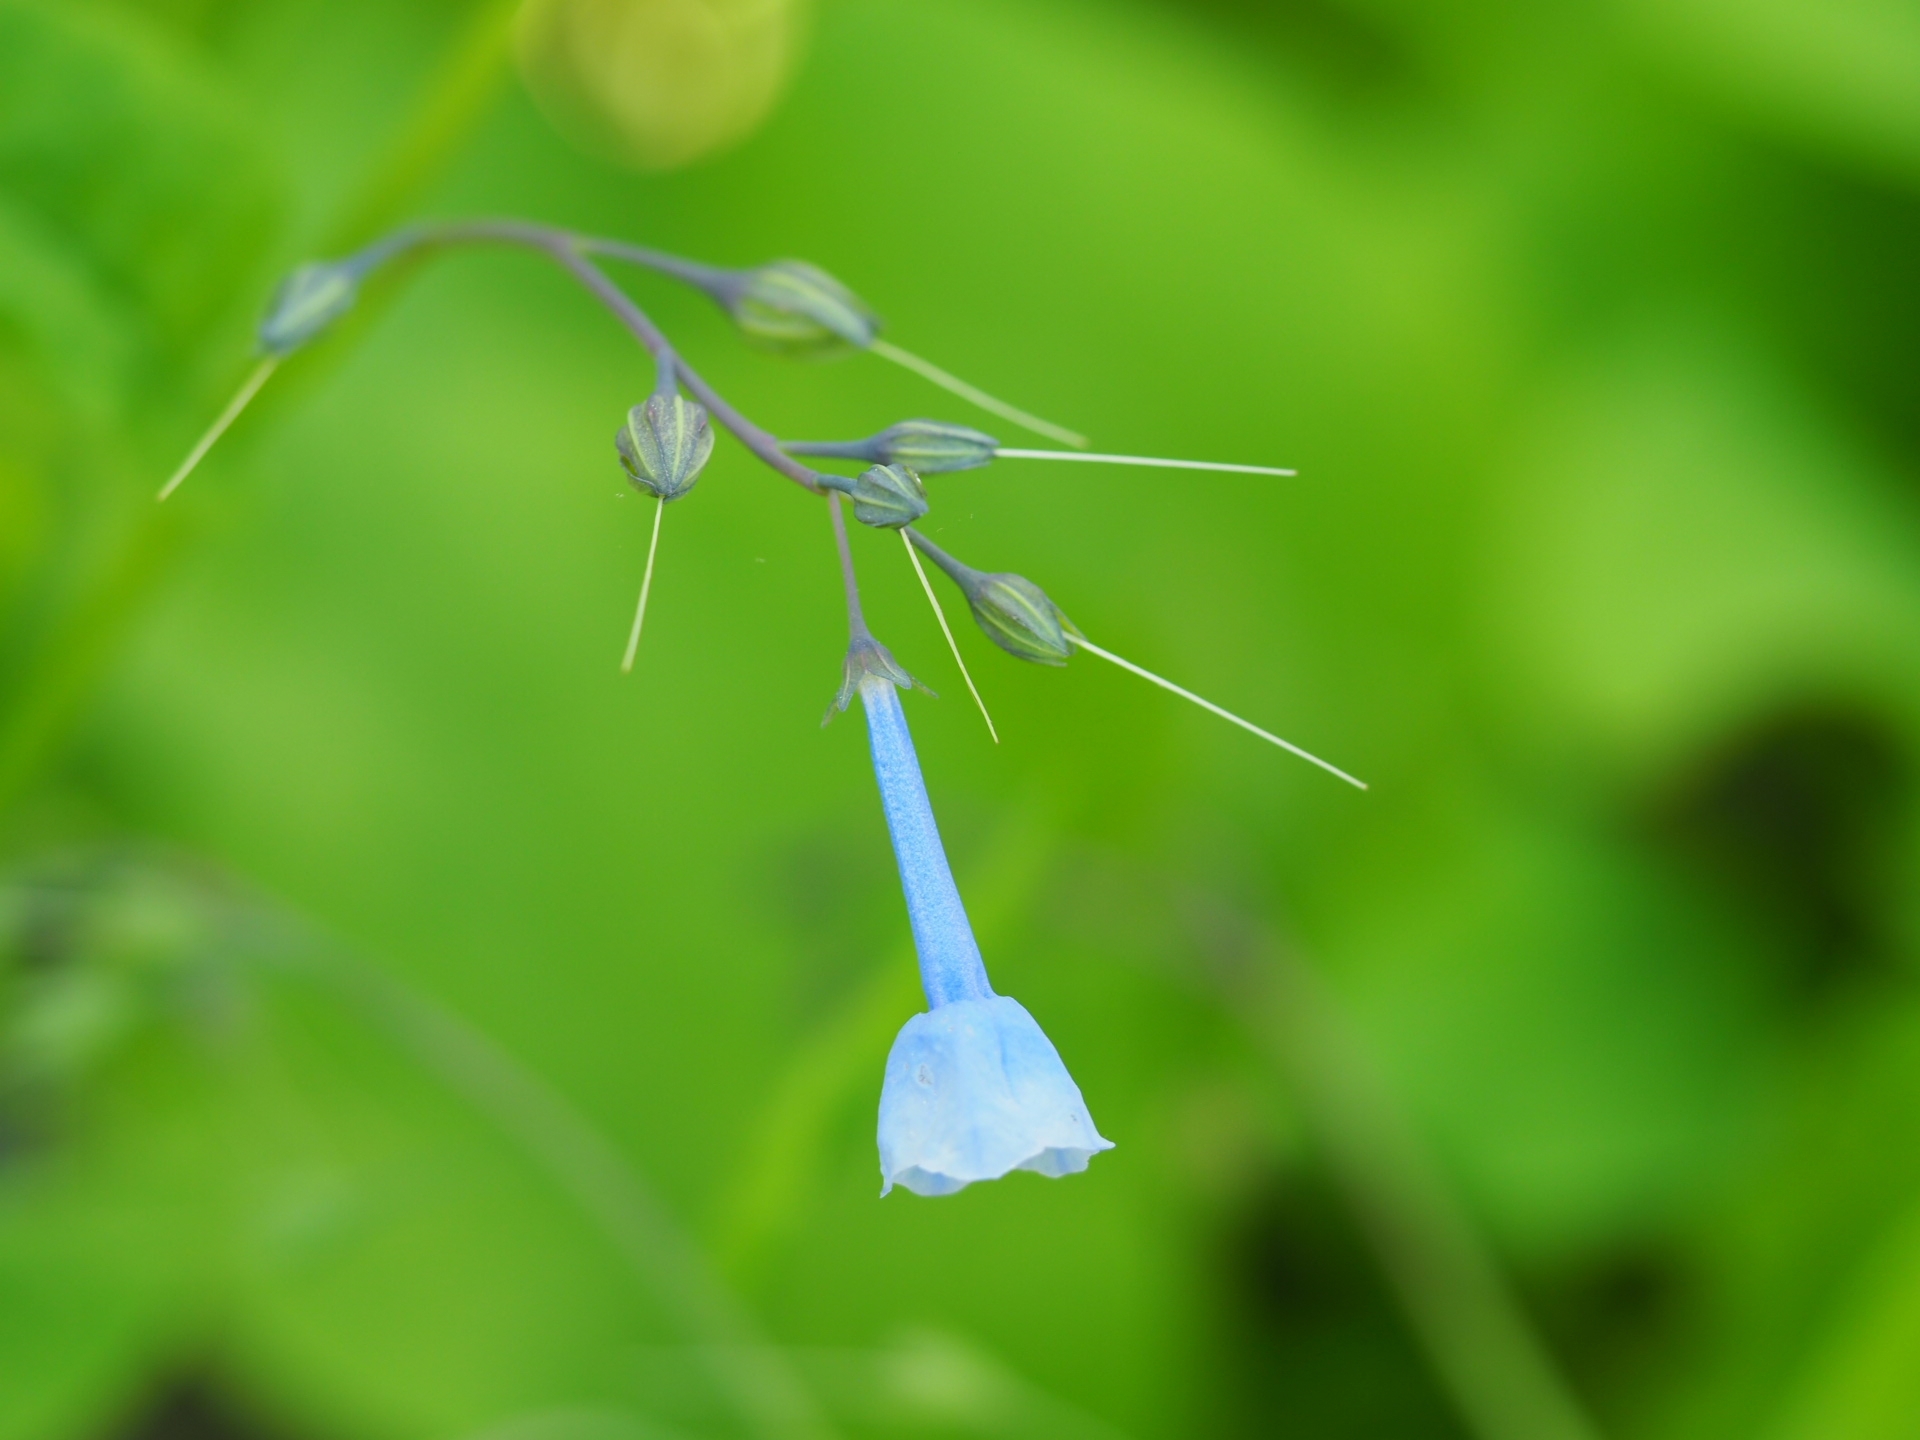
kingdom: Plantae
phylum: Tracheophyta
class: Magnoliopsida
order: Boraginales
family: Boraginaceae
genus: Mertensia
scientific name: Mertensia virginica
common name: Virginia bluebells
